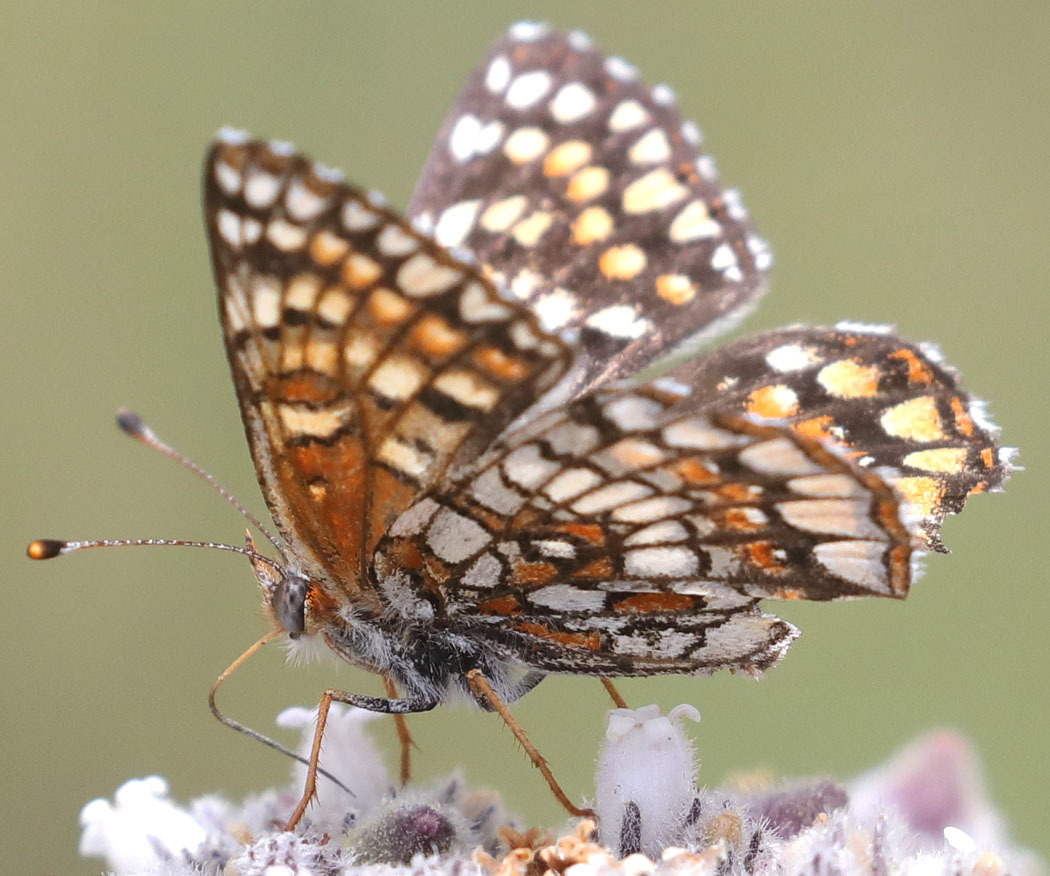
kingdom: Animalia
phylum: Arthropoda
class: Insecta
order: Lepidoptera
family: Nymphalidae
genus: Chlosyne
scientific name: Chlosyne gabbii
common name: Gabb's checkerspot
